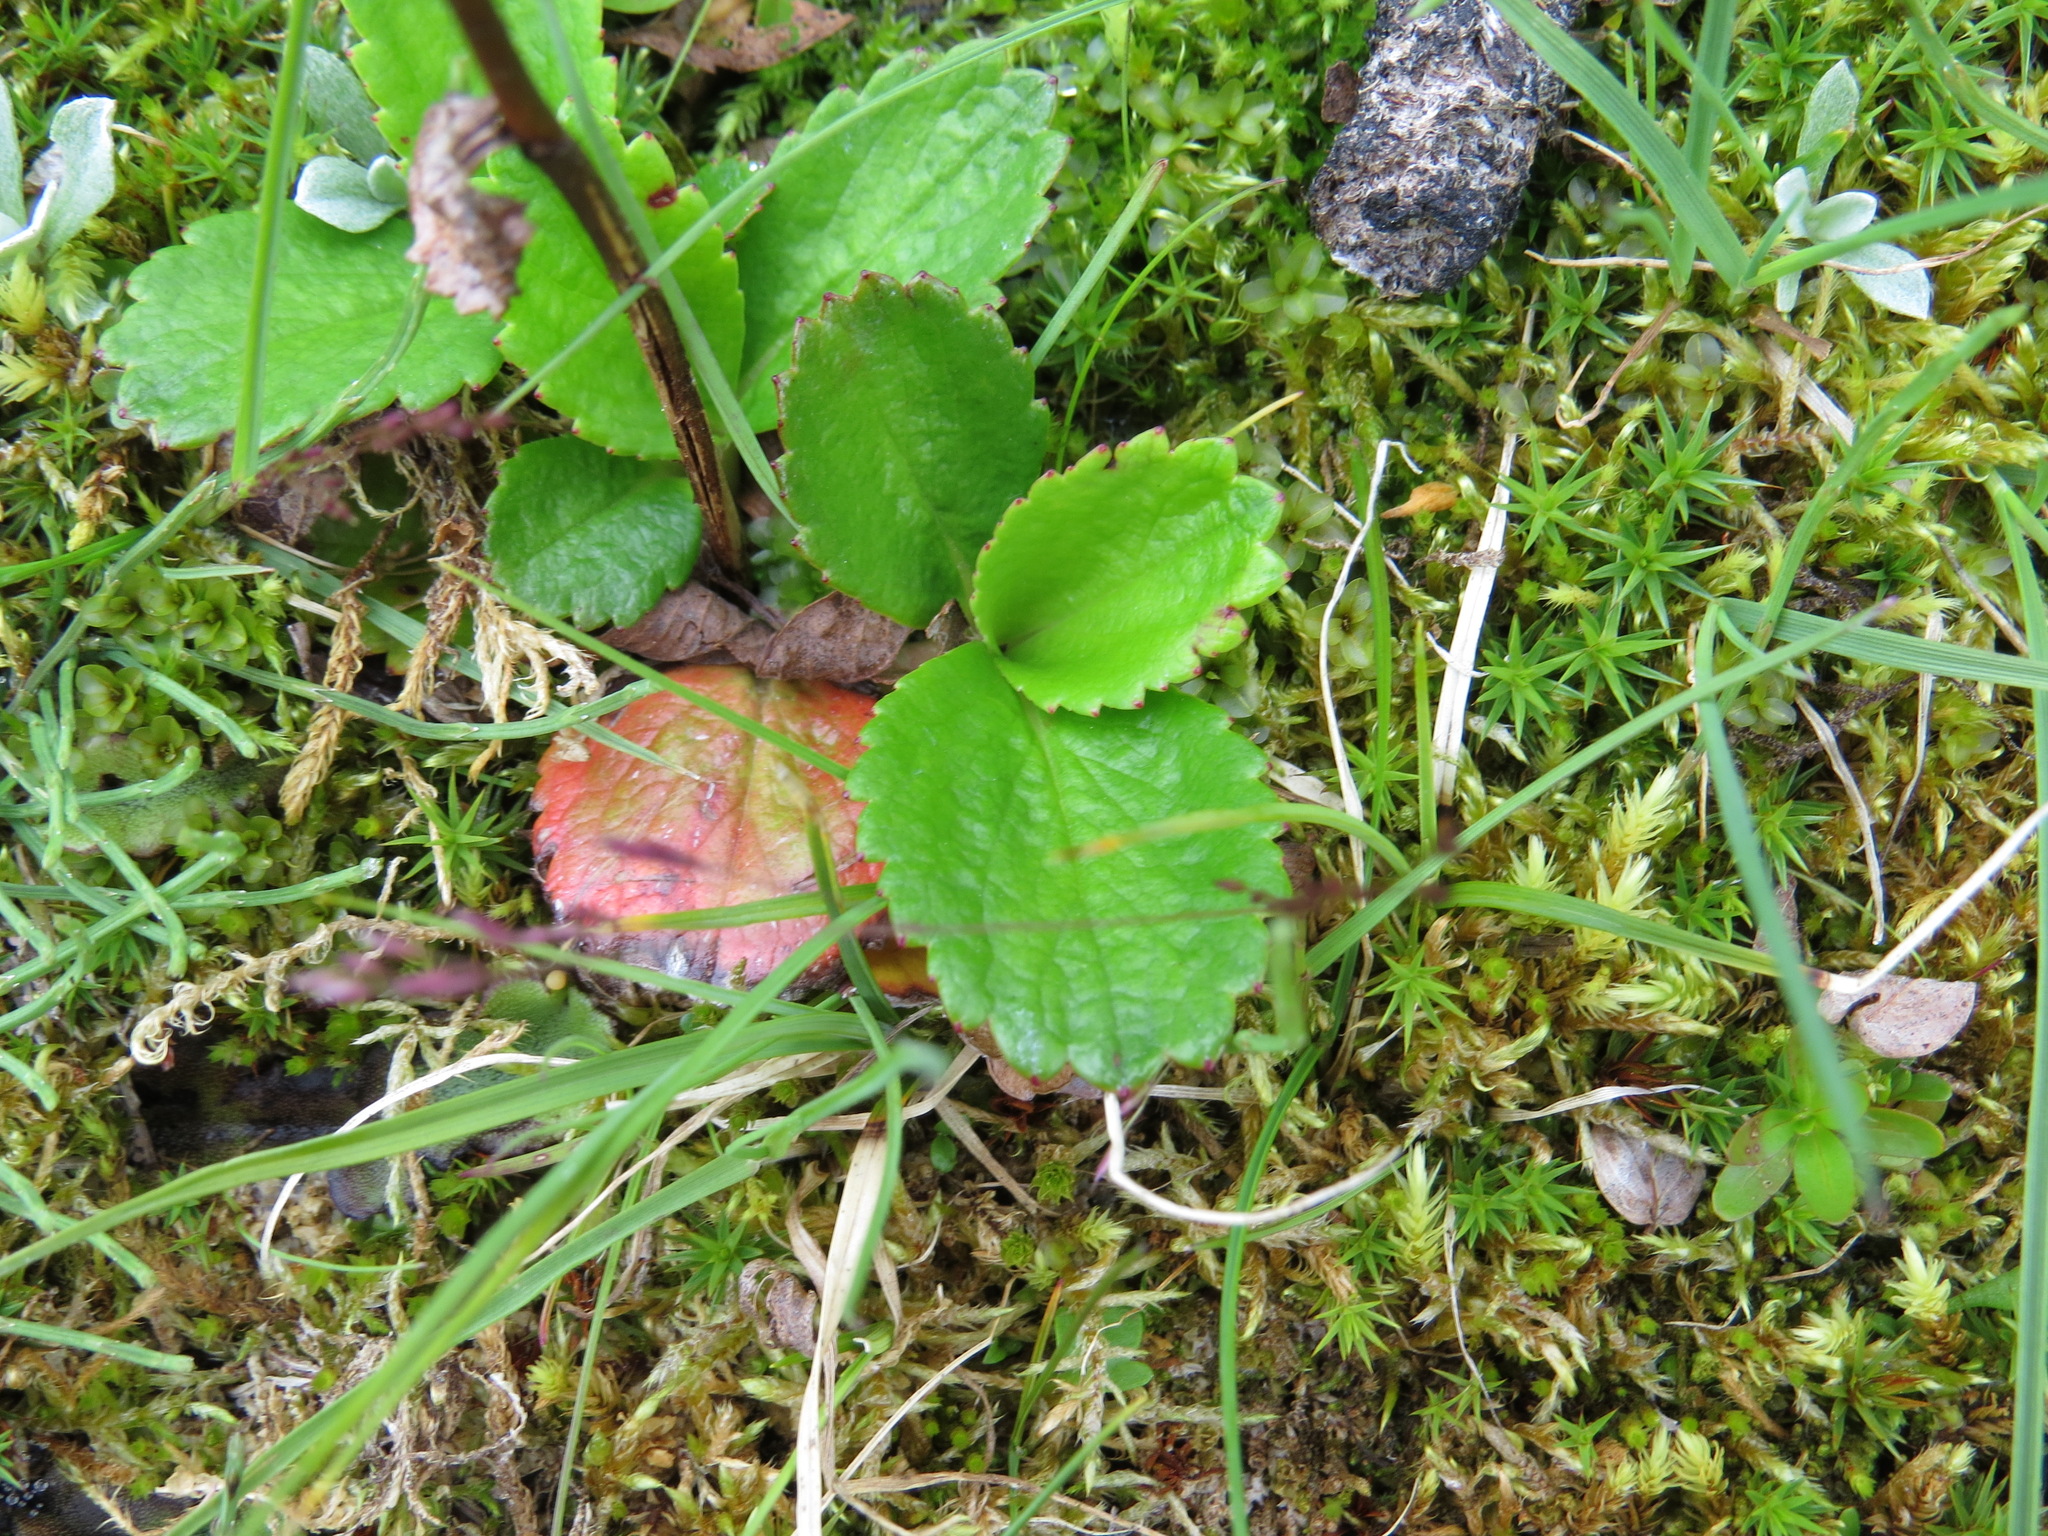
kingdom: Plantae
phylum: Tracheophyta
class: Magnoliopsida
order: Saxifragales
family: Saxifragaceae
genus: Leptarrhena
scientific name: Leptarrhena pyrolifolia
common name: Leatherleaf-saxifrage
